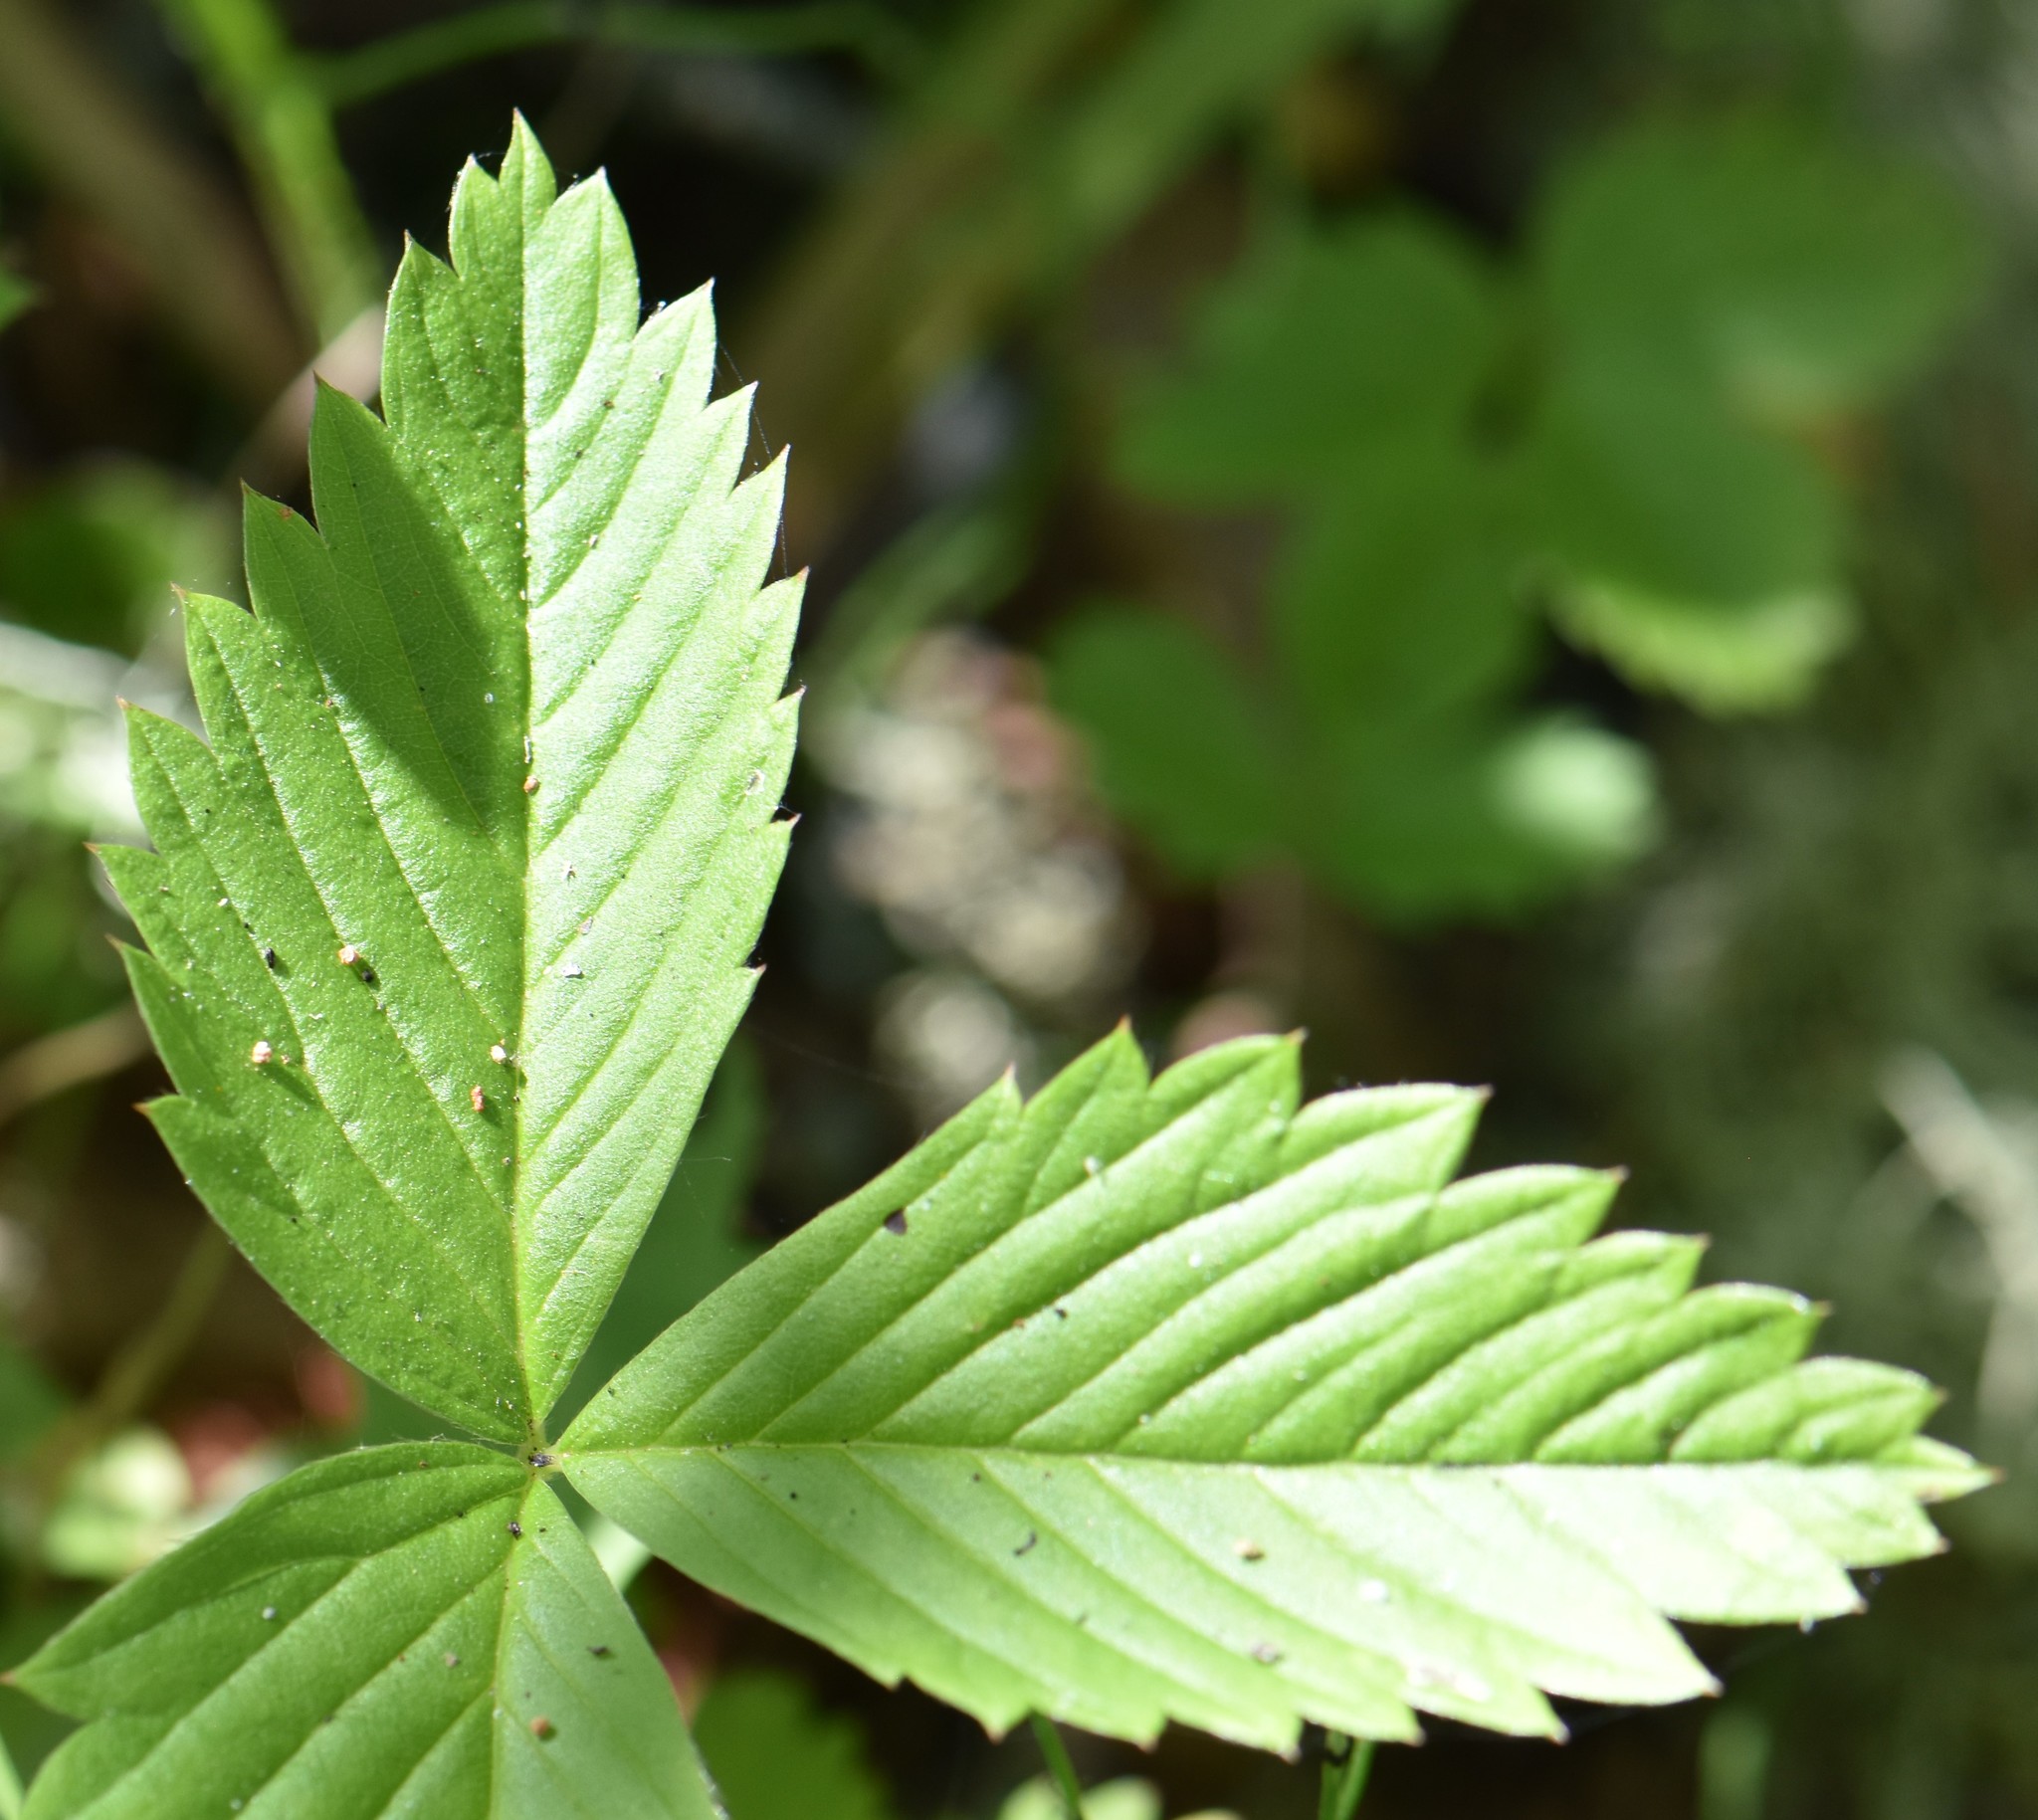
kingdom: Plantae
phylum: Tracheophyta
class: Magnoliopsida
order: Rosales
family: Rosaceae
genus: Fragaria
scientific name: Fragaria vesca
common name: Wild strawberry
